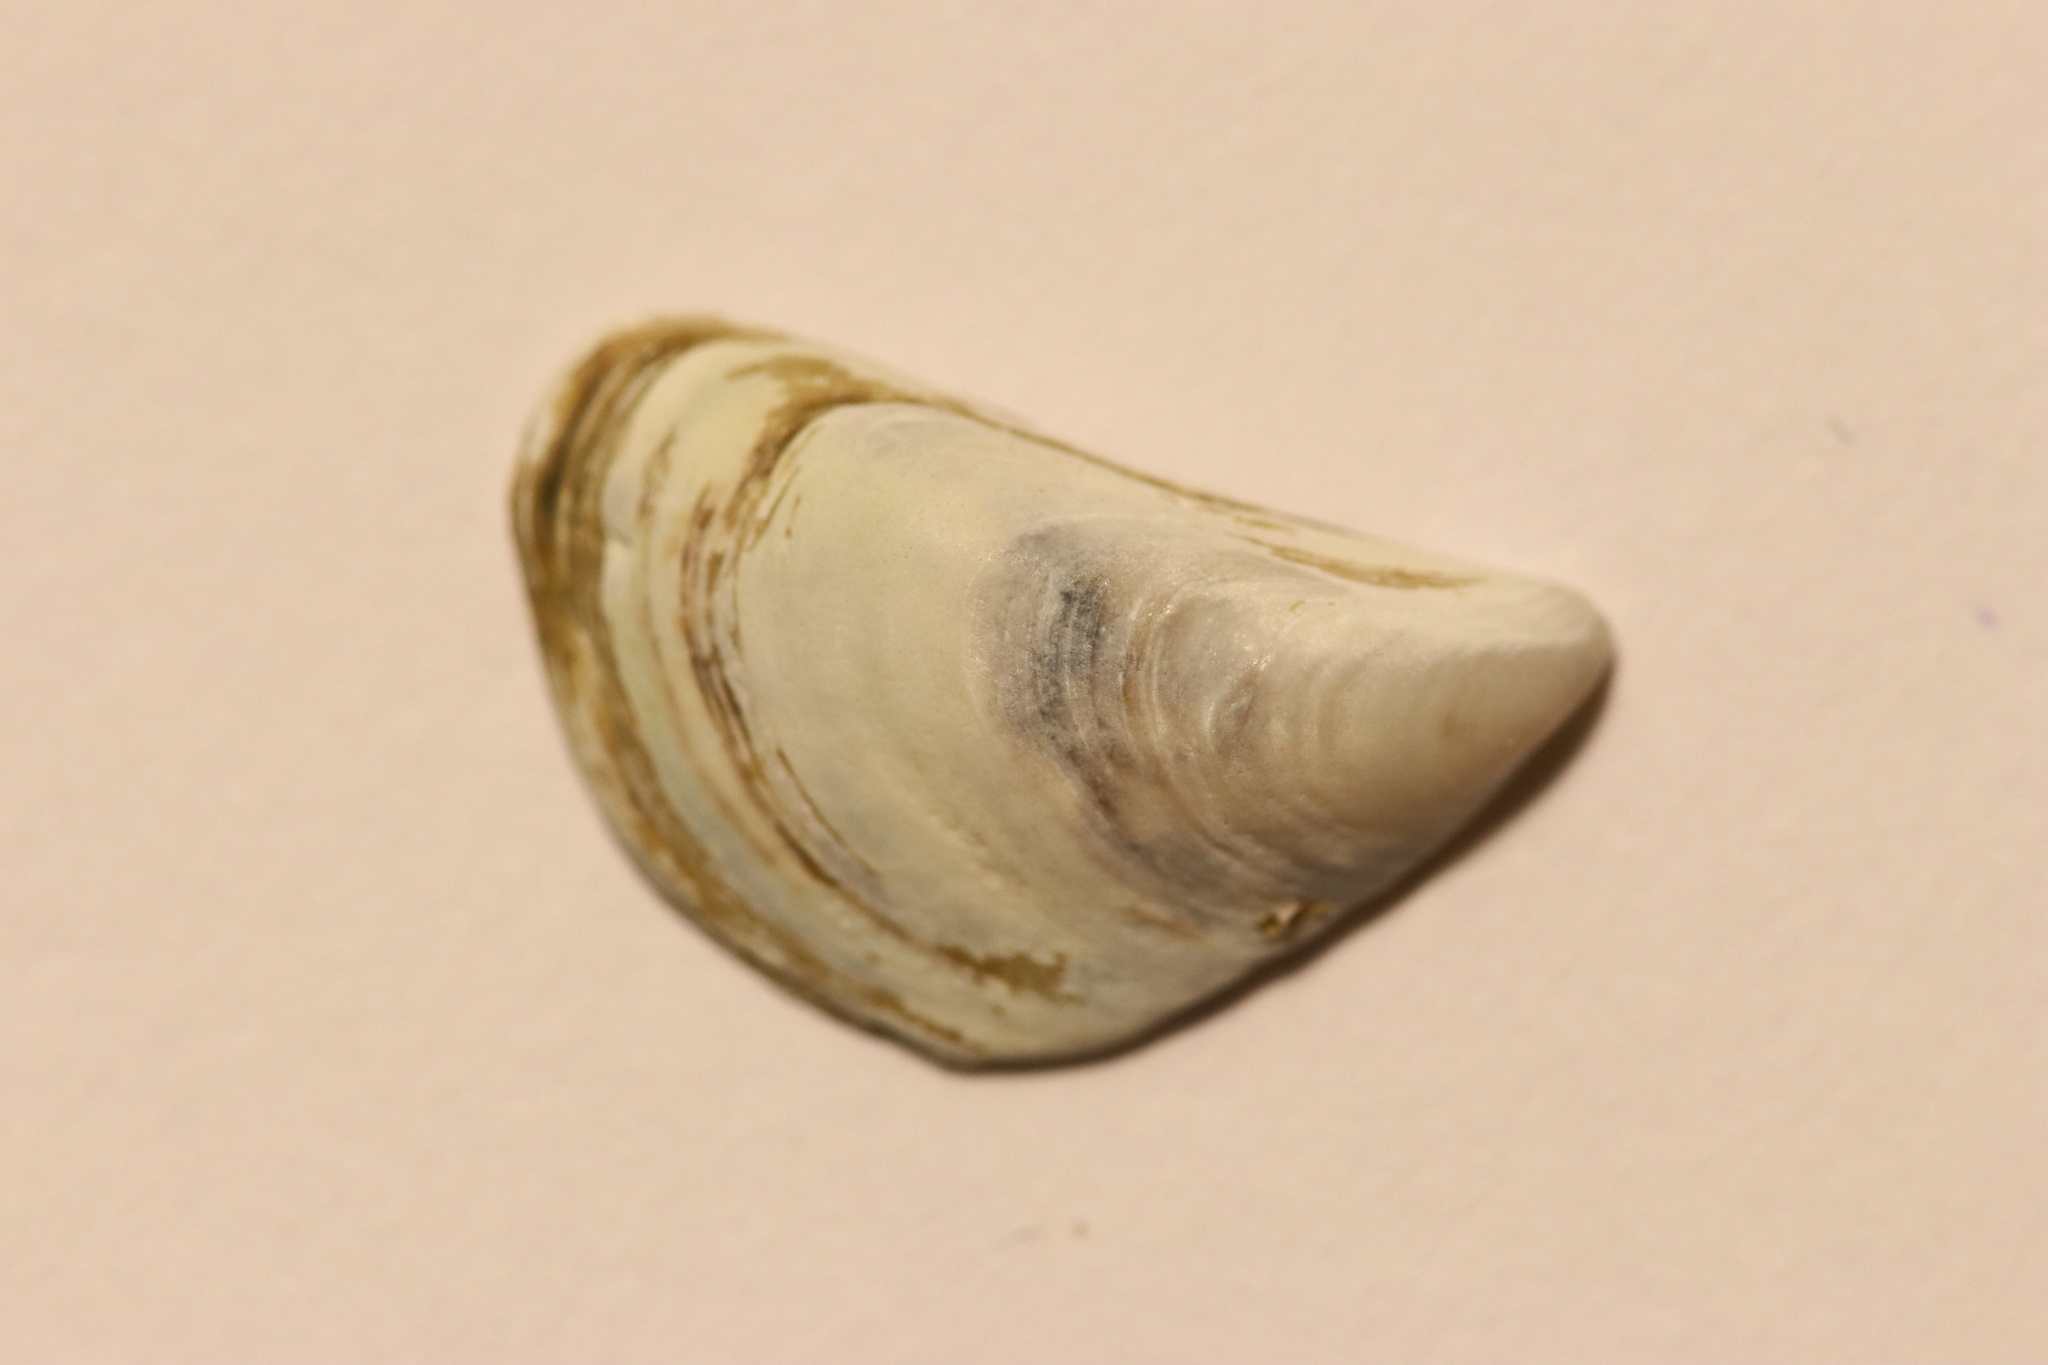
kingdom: Animalia
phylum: Mollusca
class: Bivalvia
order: Myida
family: Dreissenidae
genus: Dreissena
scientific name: Dreissena bugensis
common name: Quagga mussel
